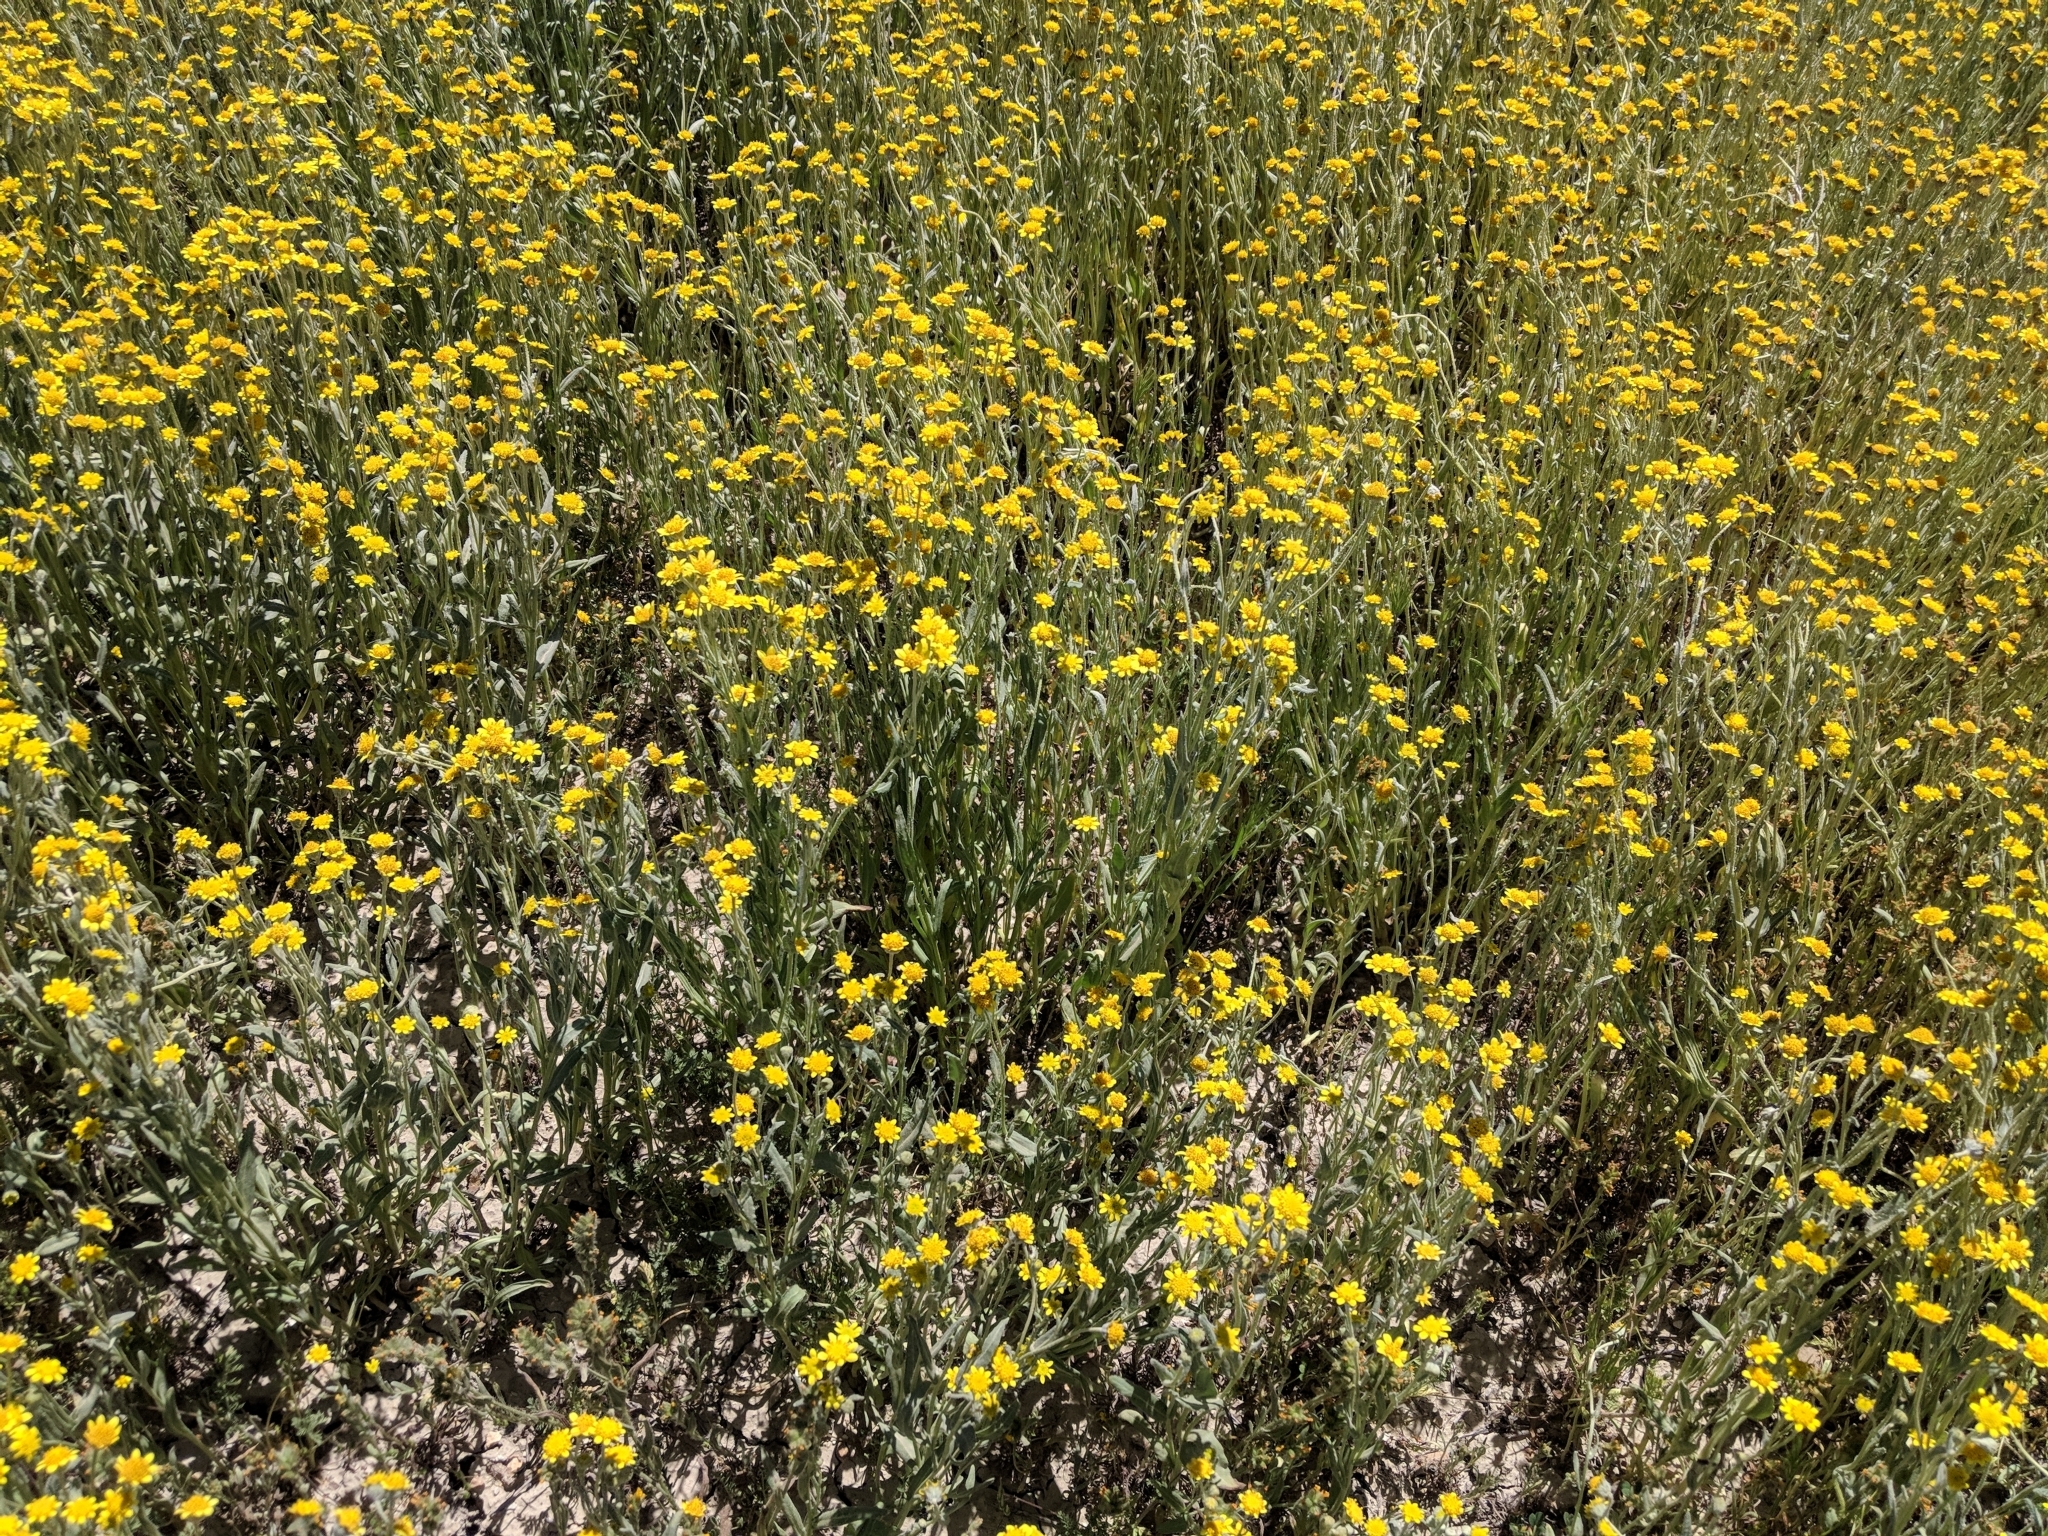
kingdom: Plantae
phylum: Tracheophyta
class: Magnoliopsida
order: Asterales
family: Asteraceae
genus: Monolopia
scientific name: Monolopia stricta
